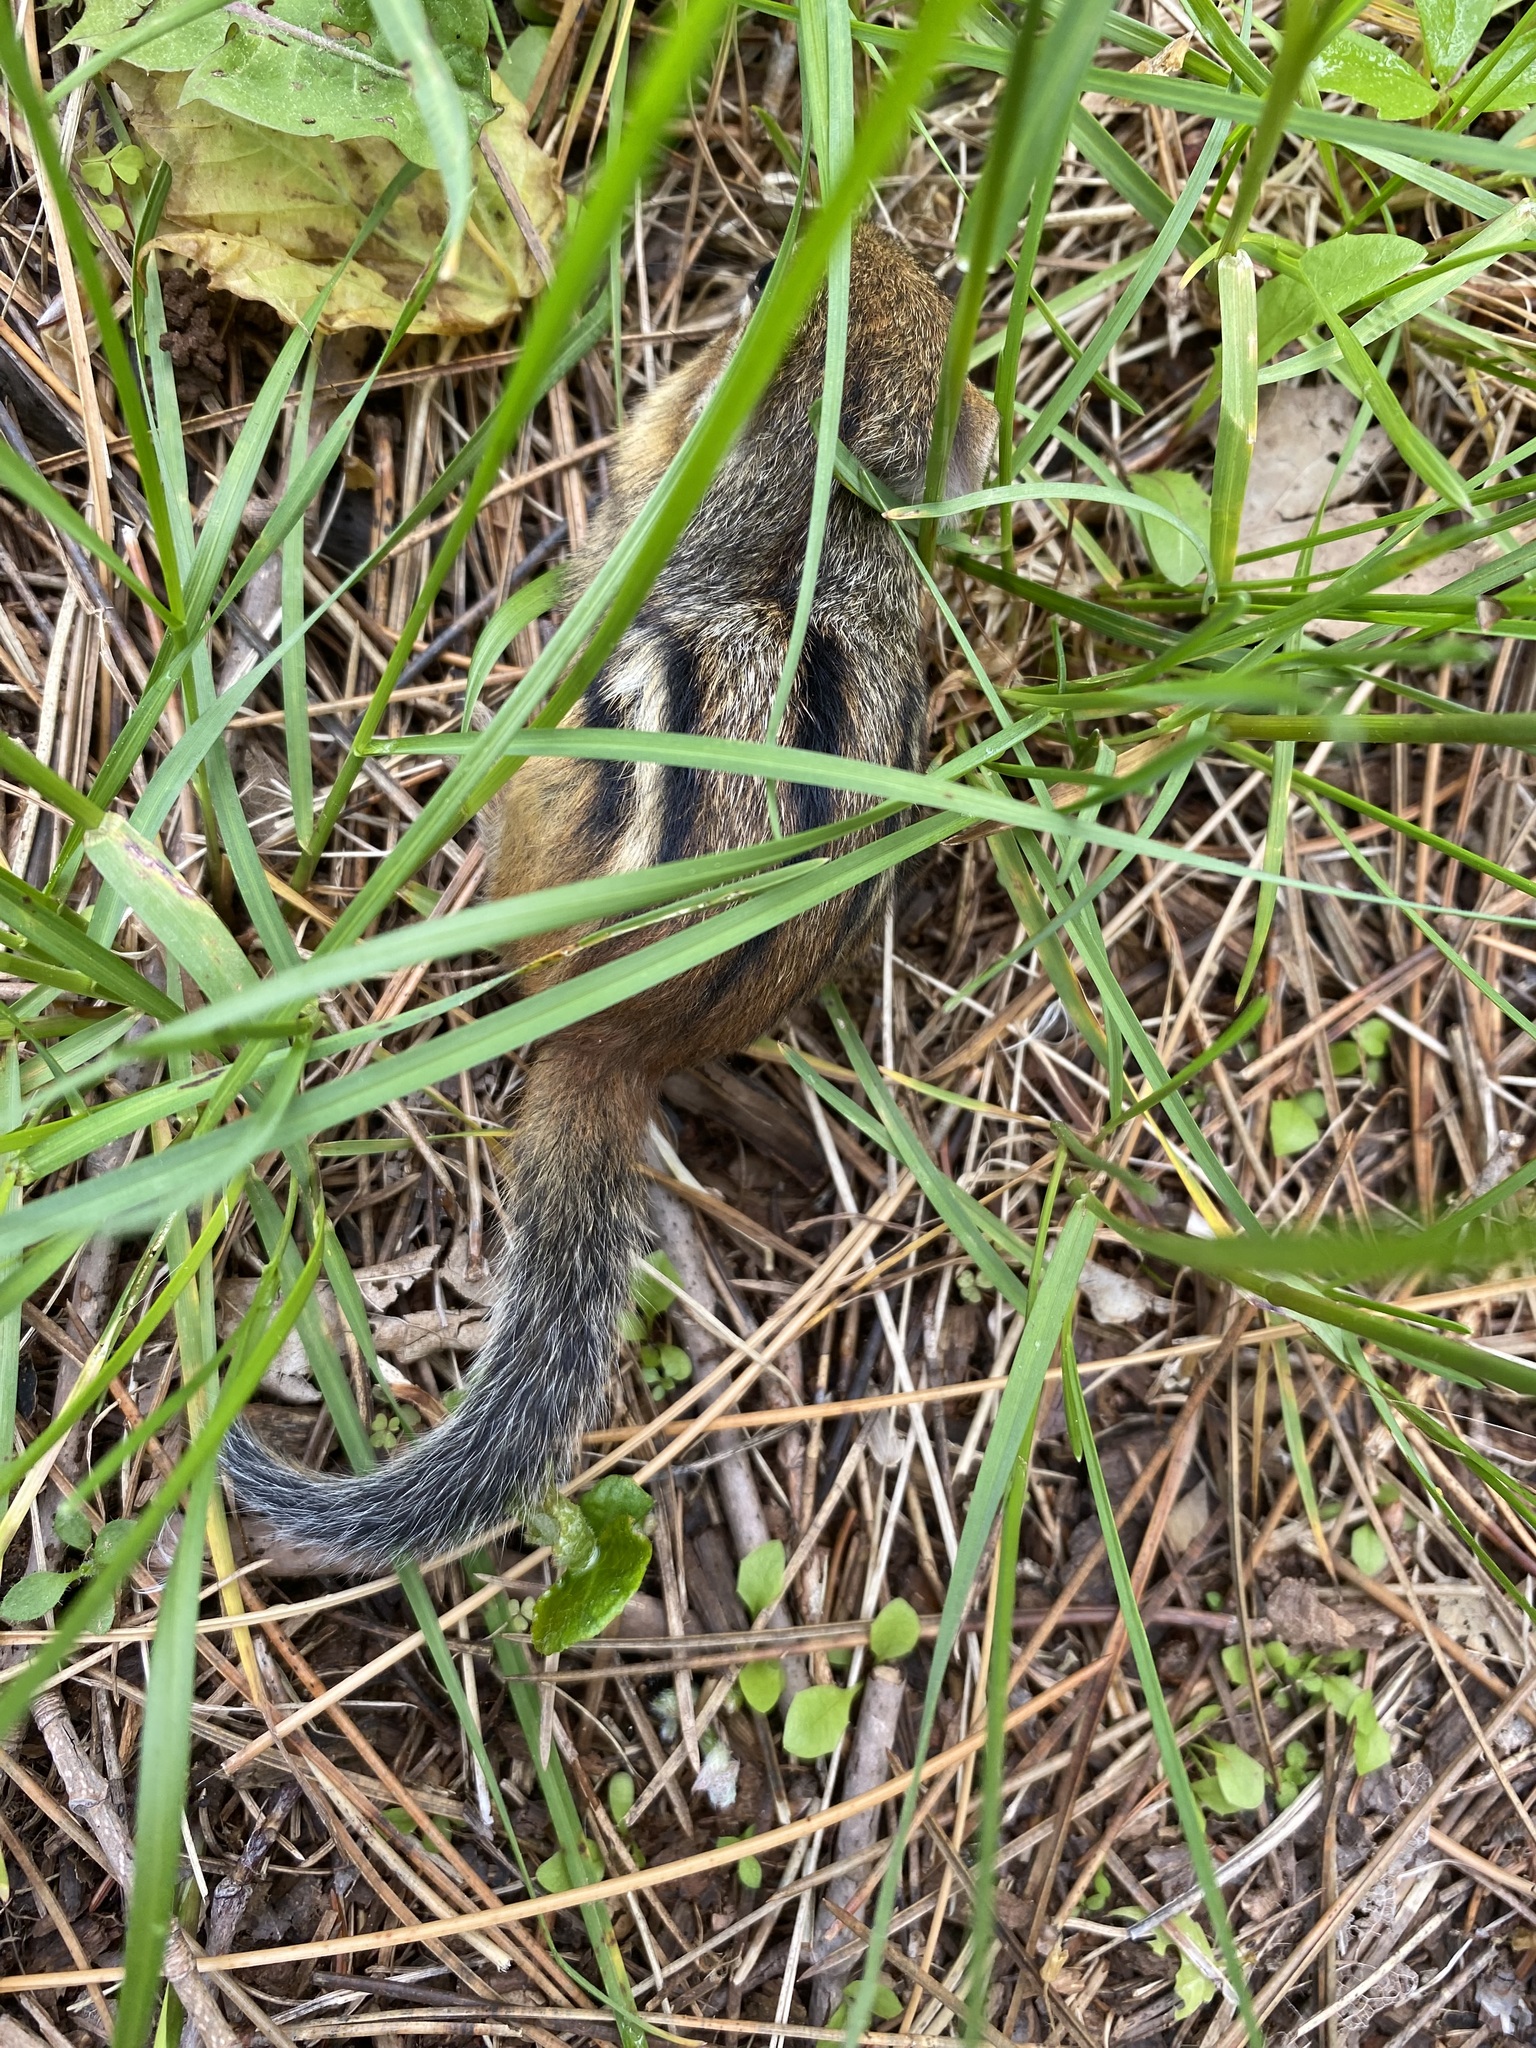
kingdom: Animalia
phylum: Chordata
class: Mammalia
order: Rodentia
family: Sciuridae
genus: Tamias
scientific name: Tamias striatus
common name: Eastern chipmunk
